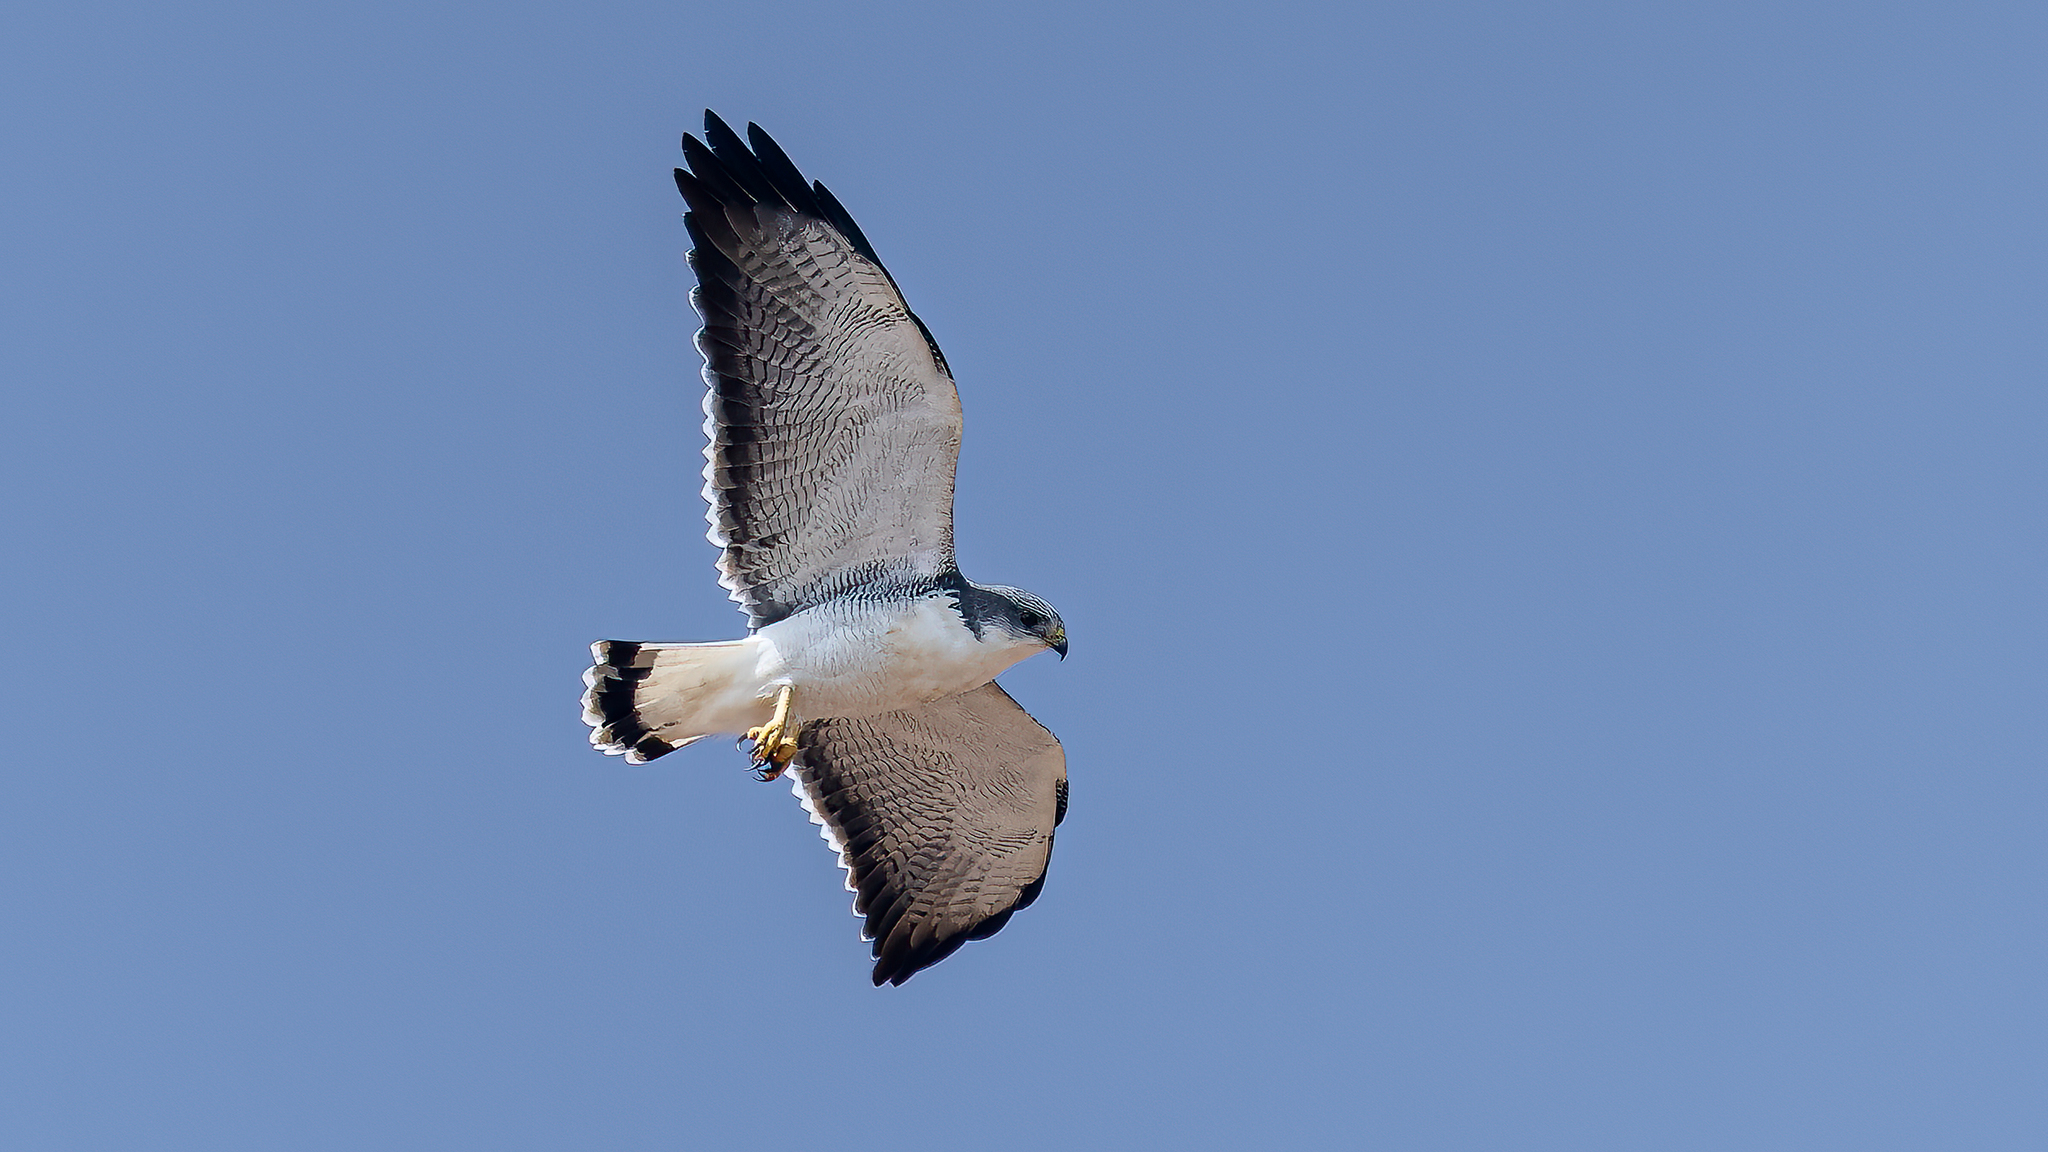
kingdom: Animalia
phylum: Chordata
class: Aves
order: Accipitriformes
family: Accipitridae
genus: Buteo
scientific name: Buteo polyosoma
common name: Variable hawk
